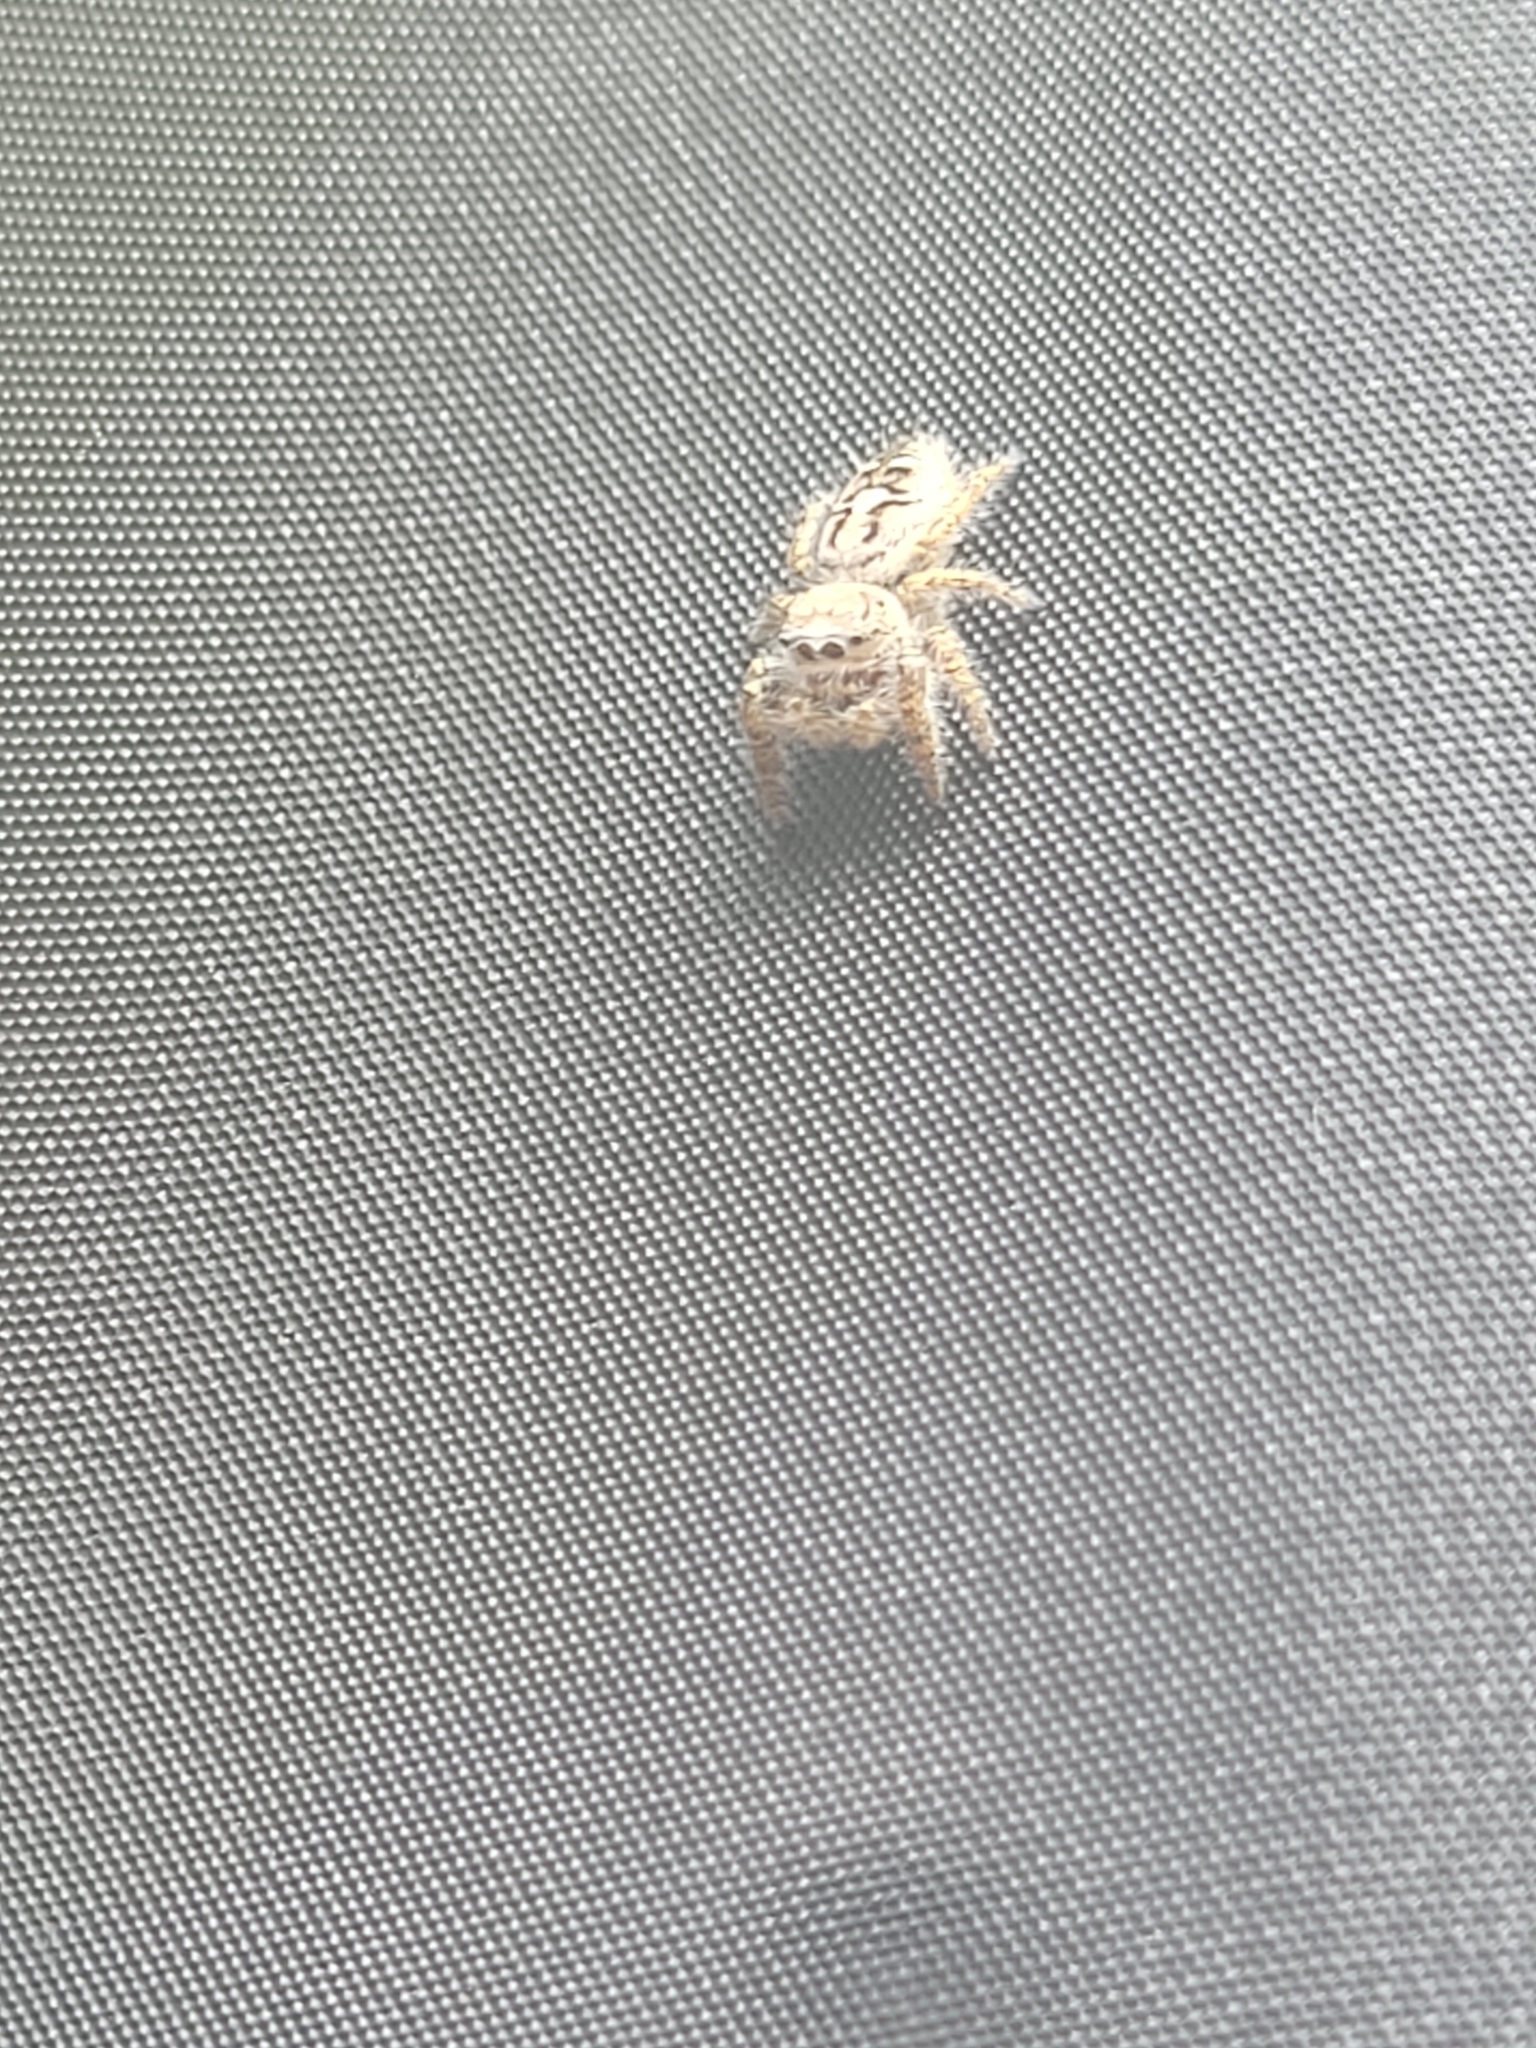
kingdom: Animalia
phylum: Arthropoda
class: Arachnida
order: Araneae
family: Salticidae
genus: Phidippus
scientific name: Phidippus carolinensis
